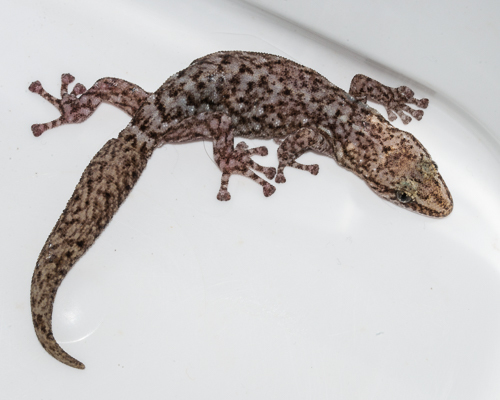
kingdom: Animalia
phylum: Chordata
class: Squamata
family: Gekkonidae
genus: Afrogecko
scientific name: Afrogecko porphyreus
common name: Marbled leaf-toed gecko
